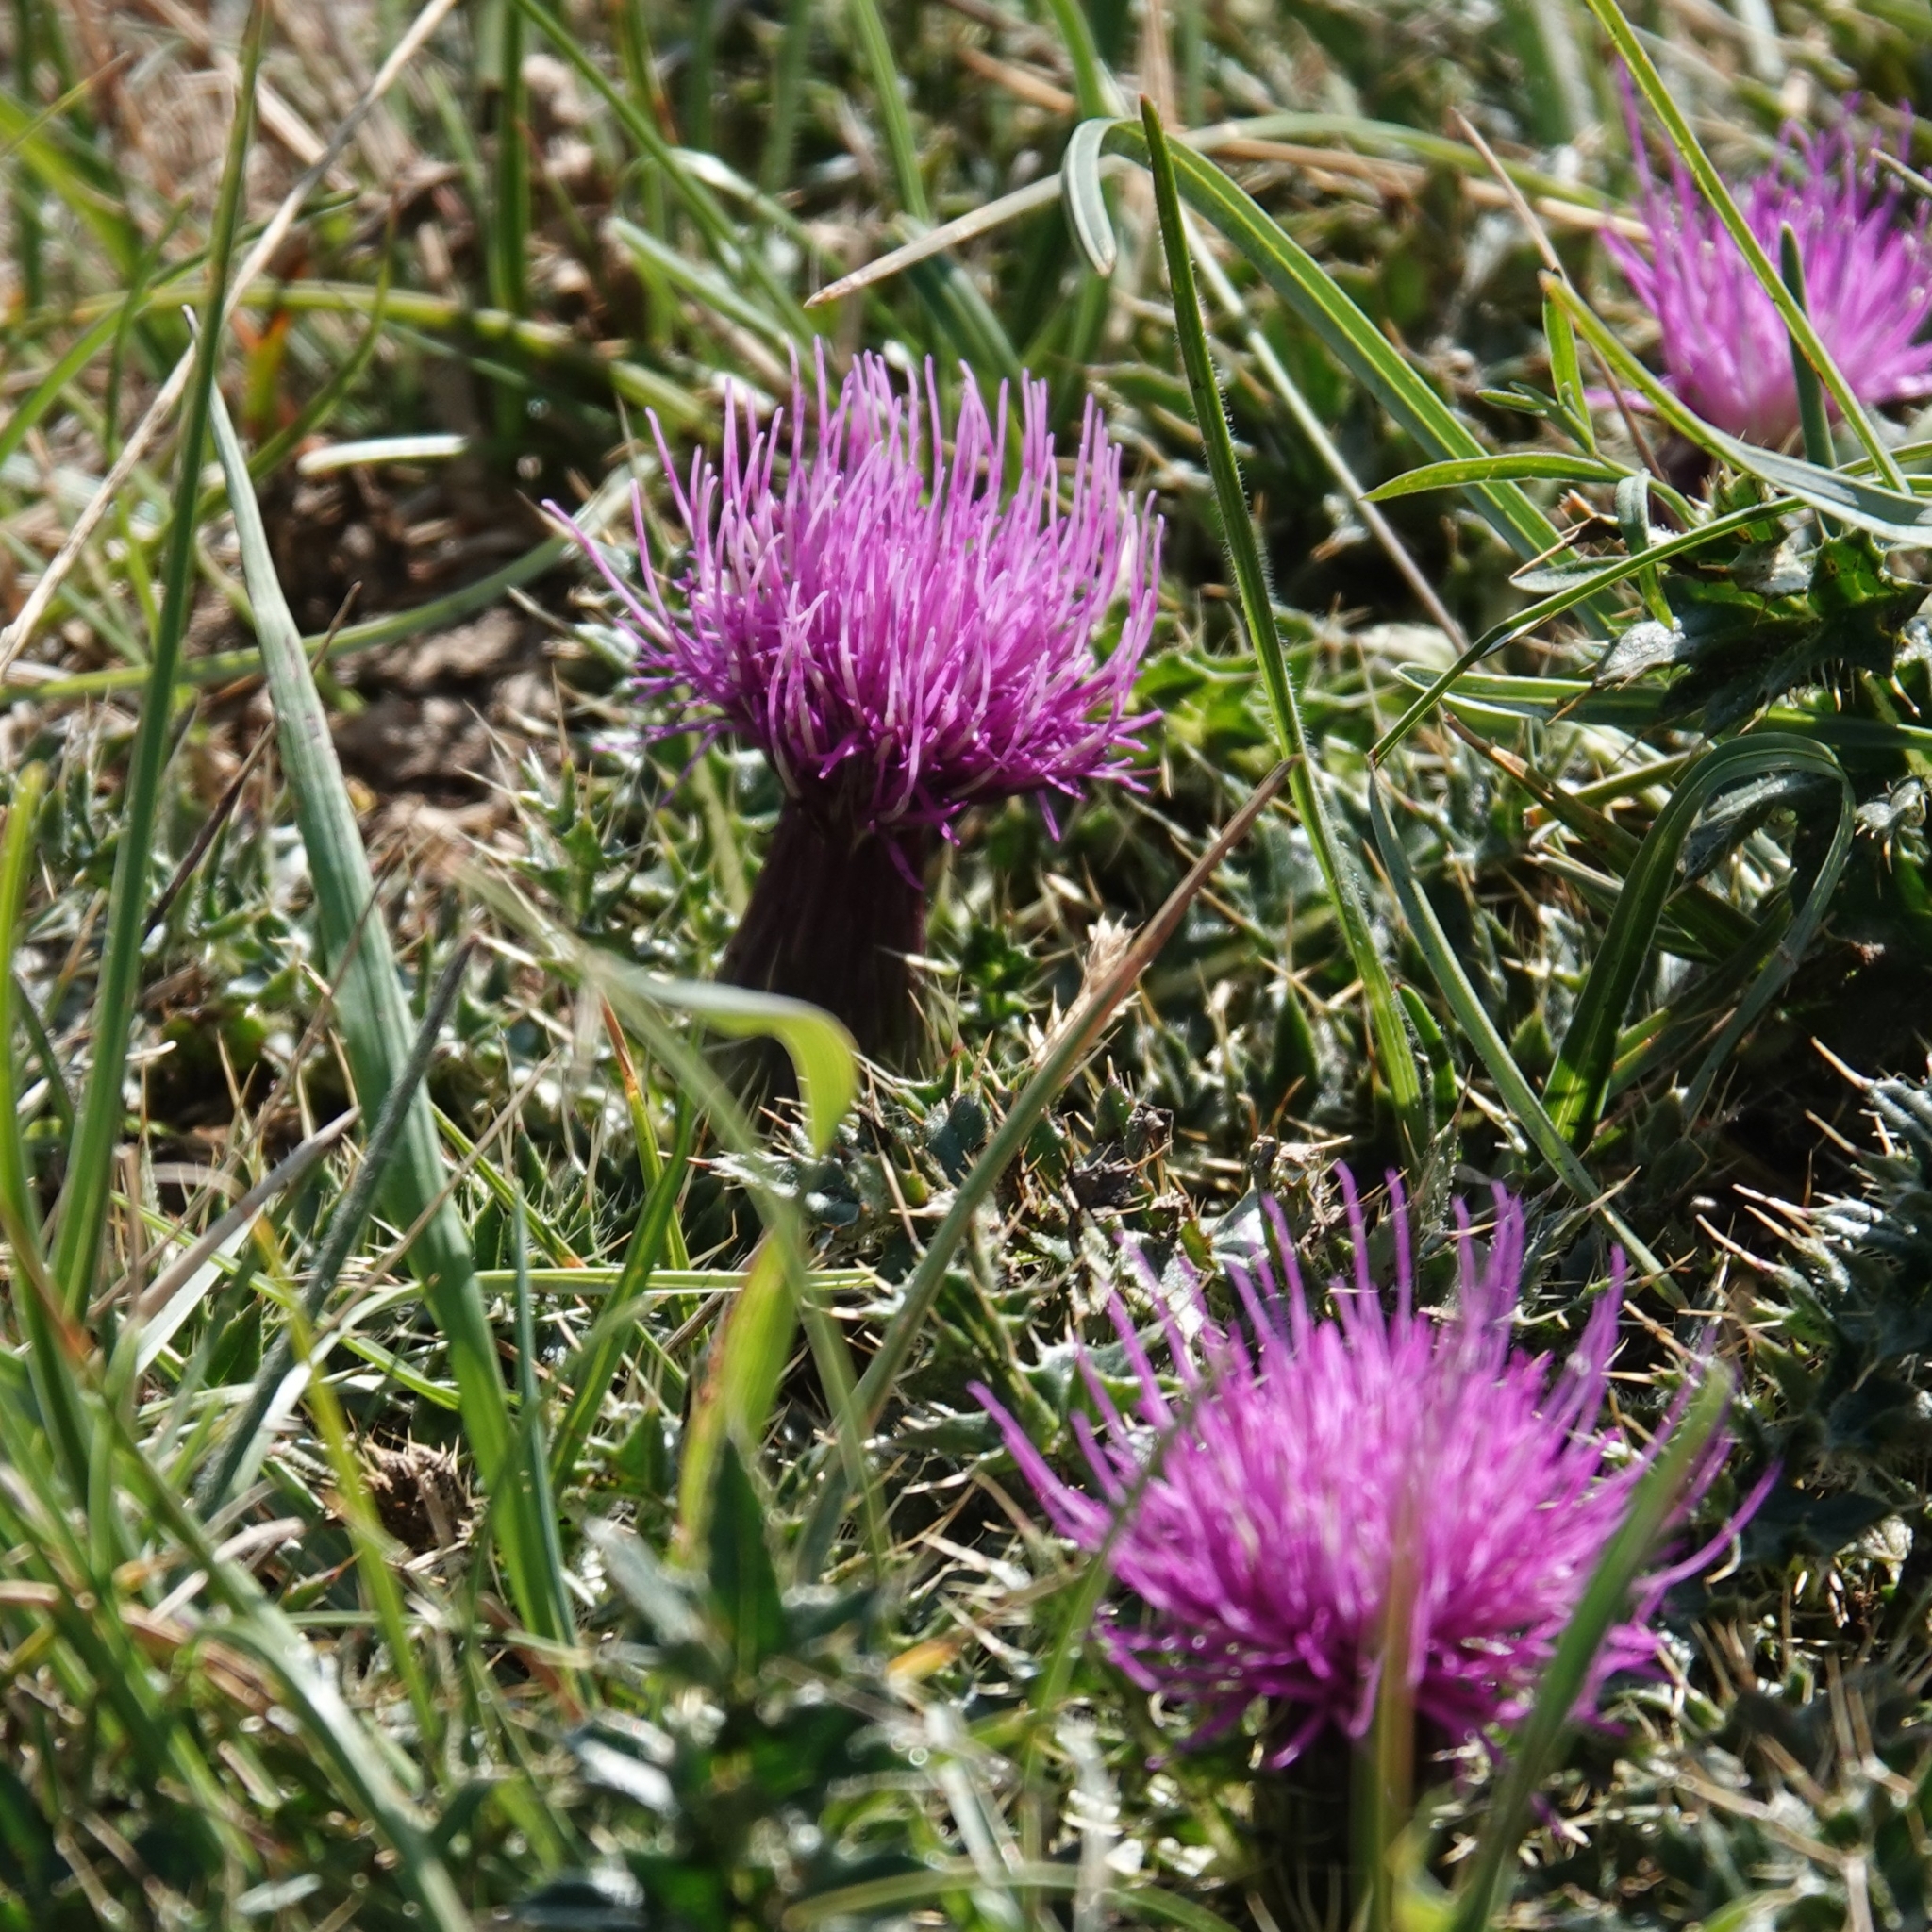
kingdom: Plantae
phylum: Tracheophyta
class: Magnoliopsida
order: Asterales
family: Asteraceae
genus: Cirsium
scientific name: Cirsium acaulon
